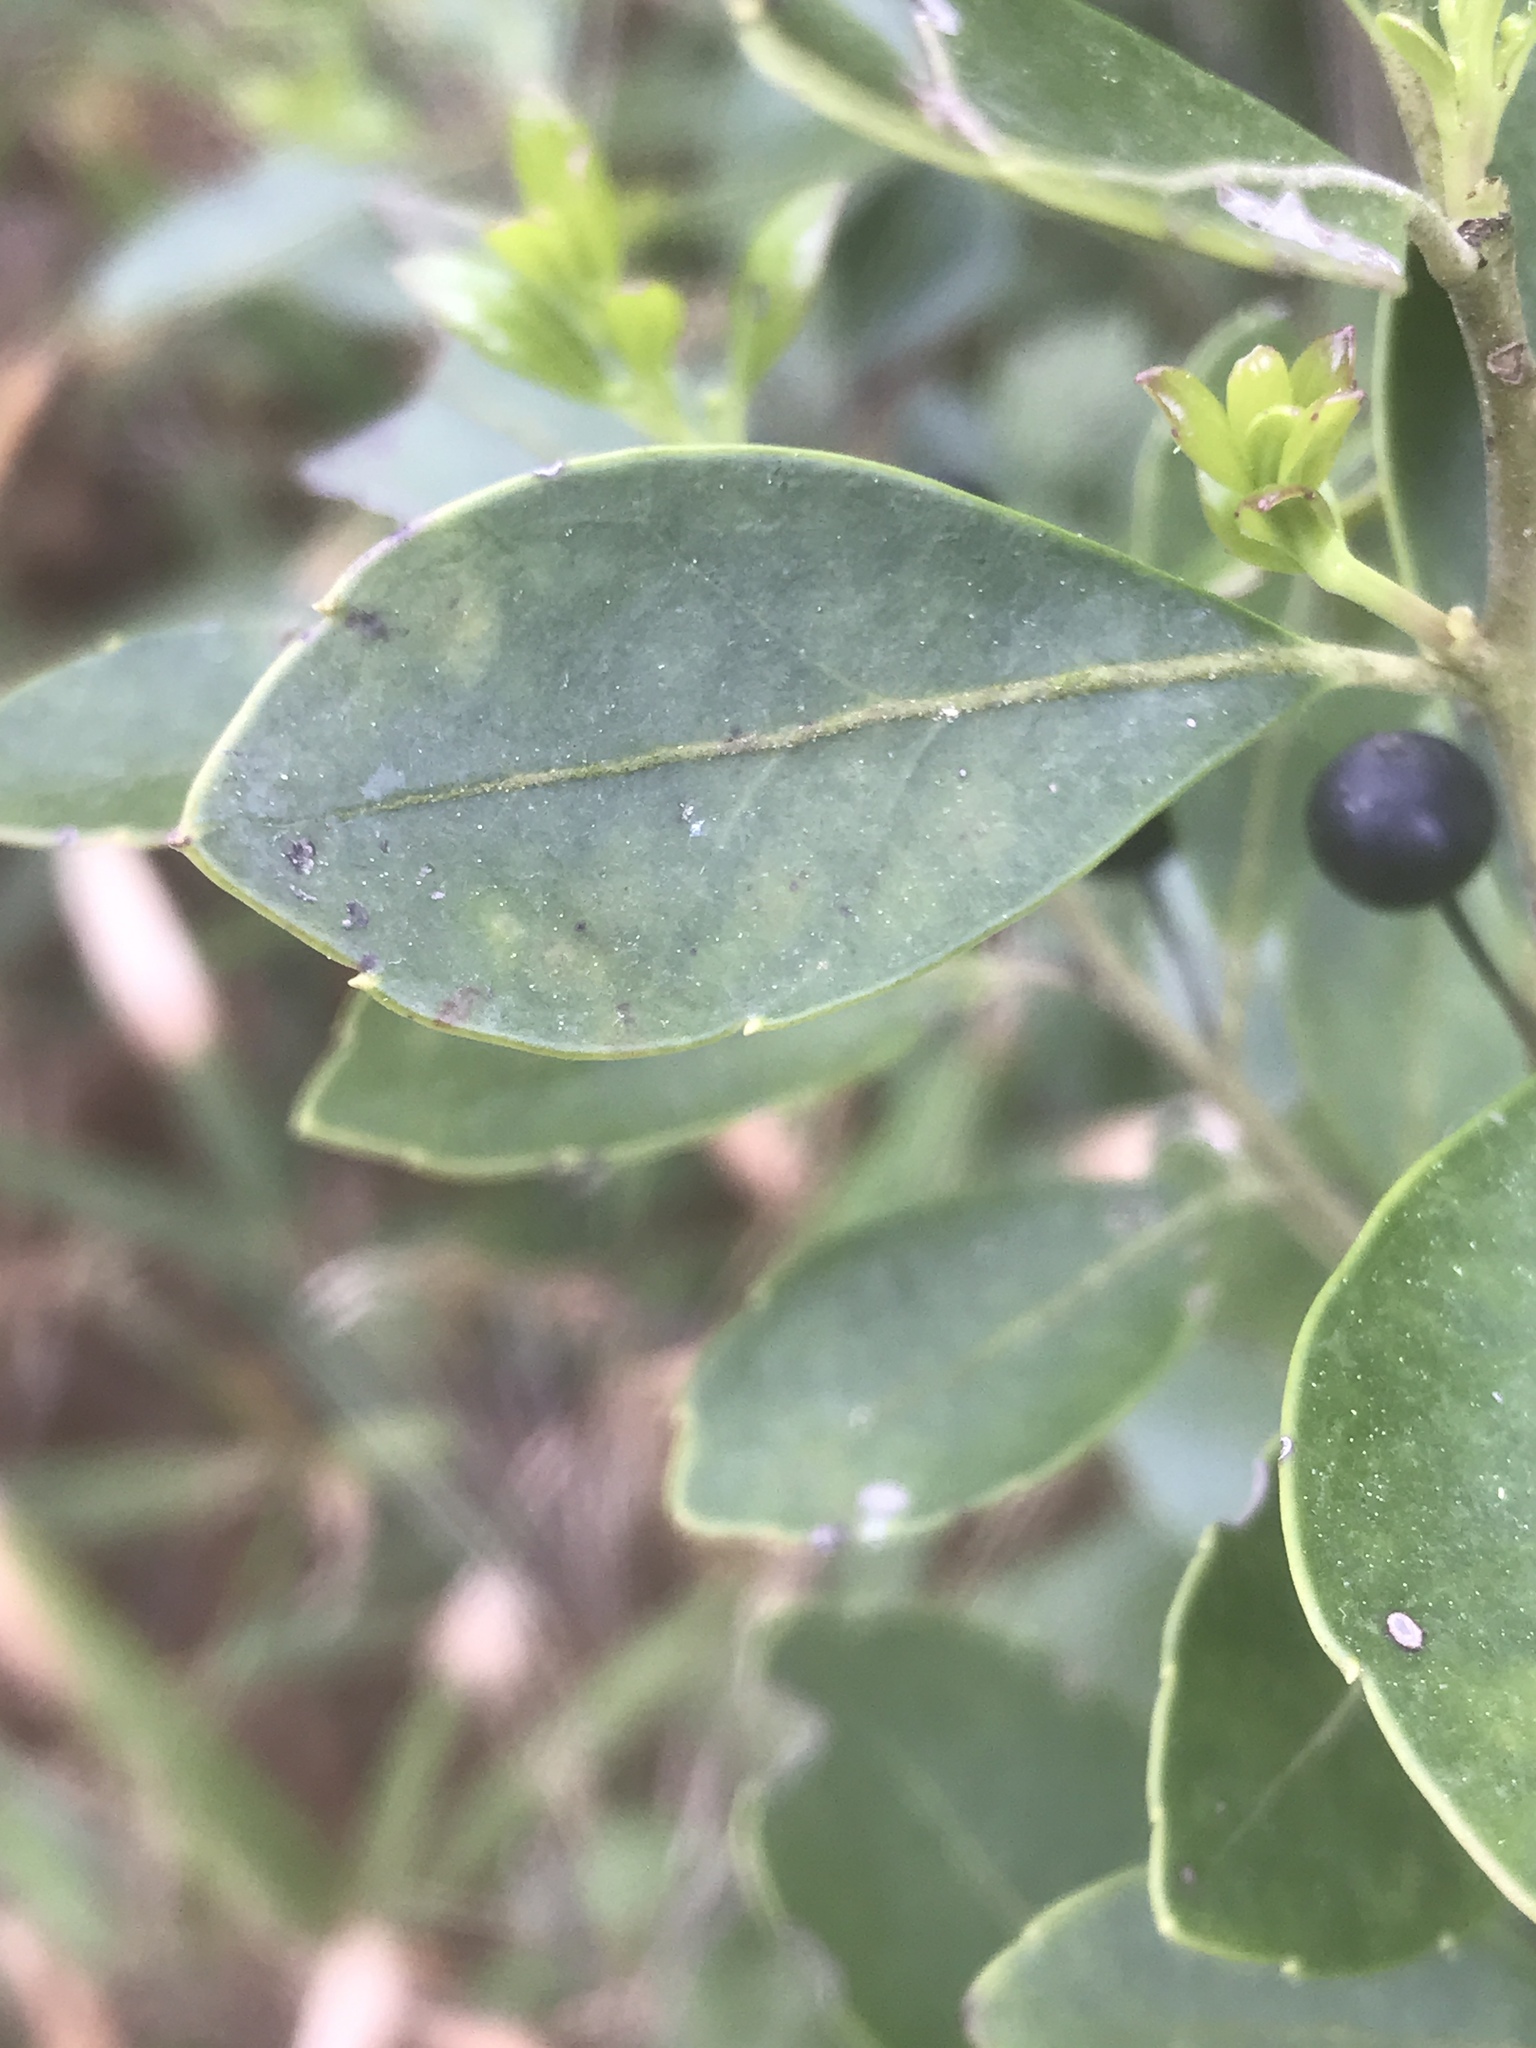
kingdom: Plantae
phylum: Tracheophyta
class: Magnoliopsida
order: Aquifoliales
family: Aquifoliaceae
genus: Ilex
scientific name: Ilex glabra
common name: Bitter gallberry
